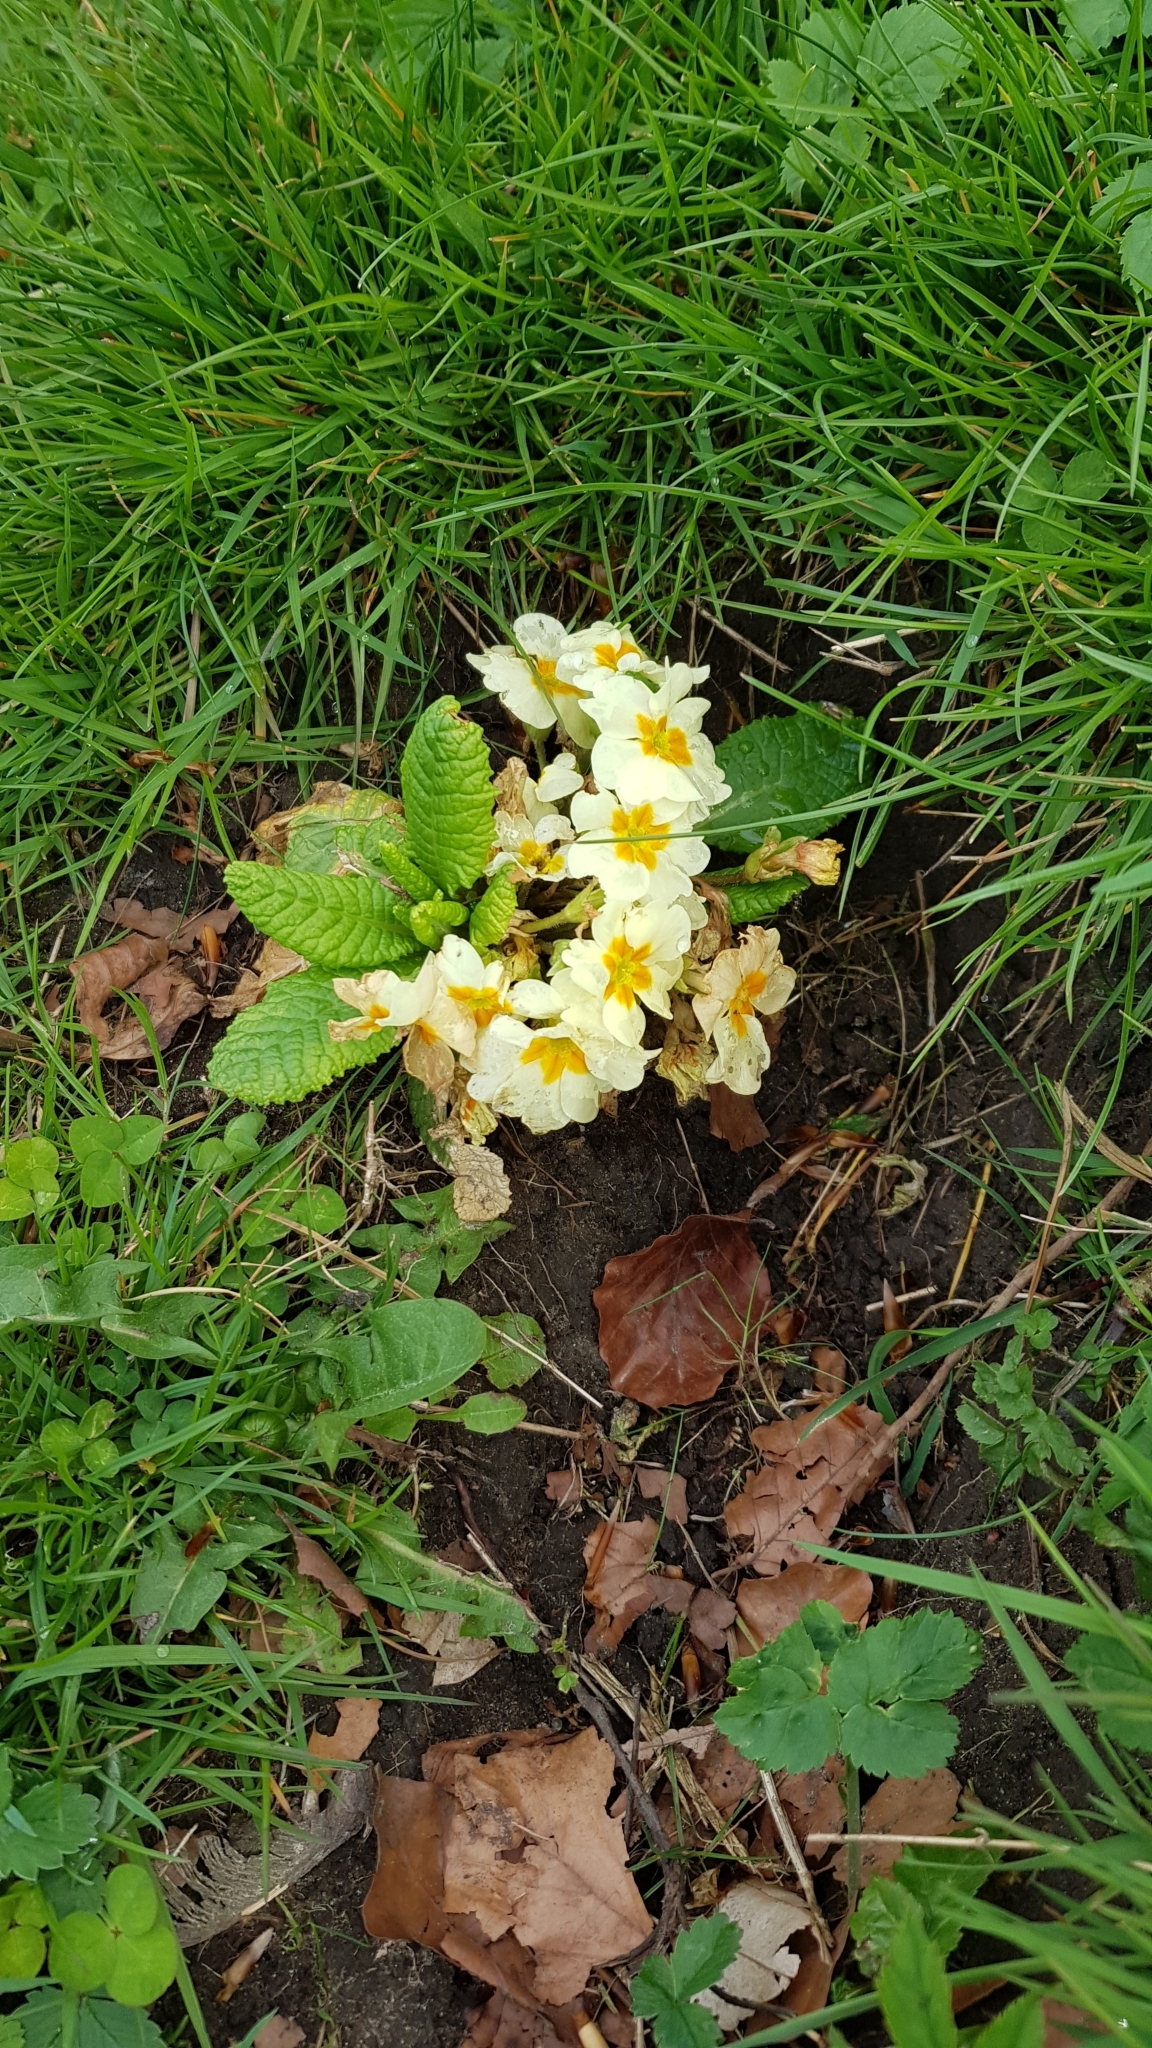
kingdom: Plantae
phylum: Tracheophyta
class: Magnoliopsida
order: Ericales
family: Primulaceae
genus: Primula
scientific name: Primula vulgaris
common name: Primrose
